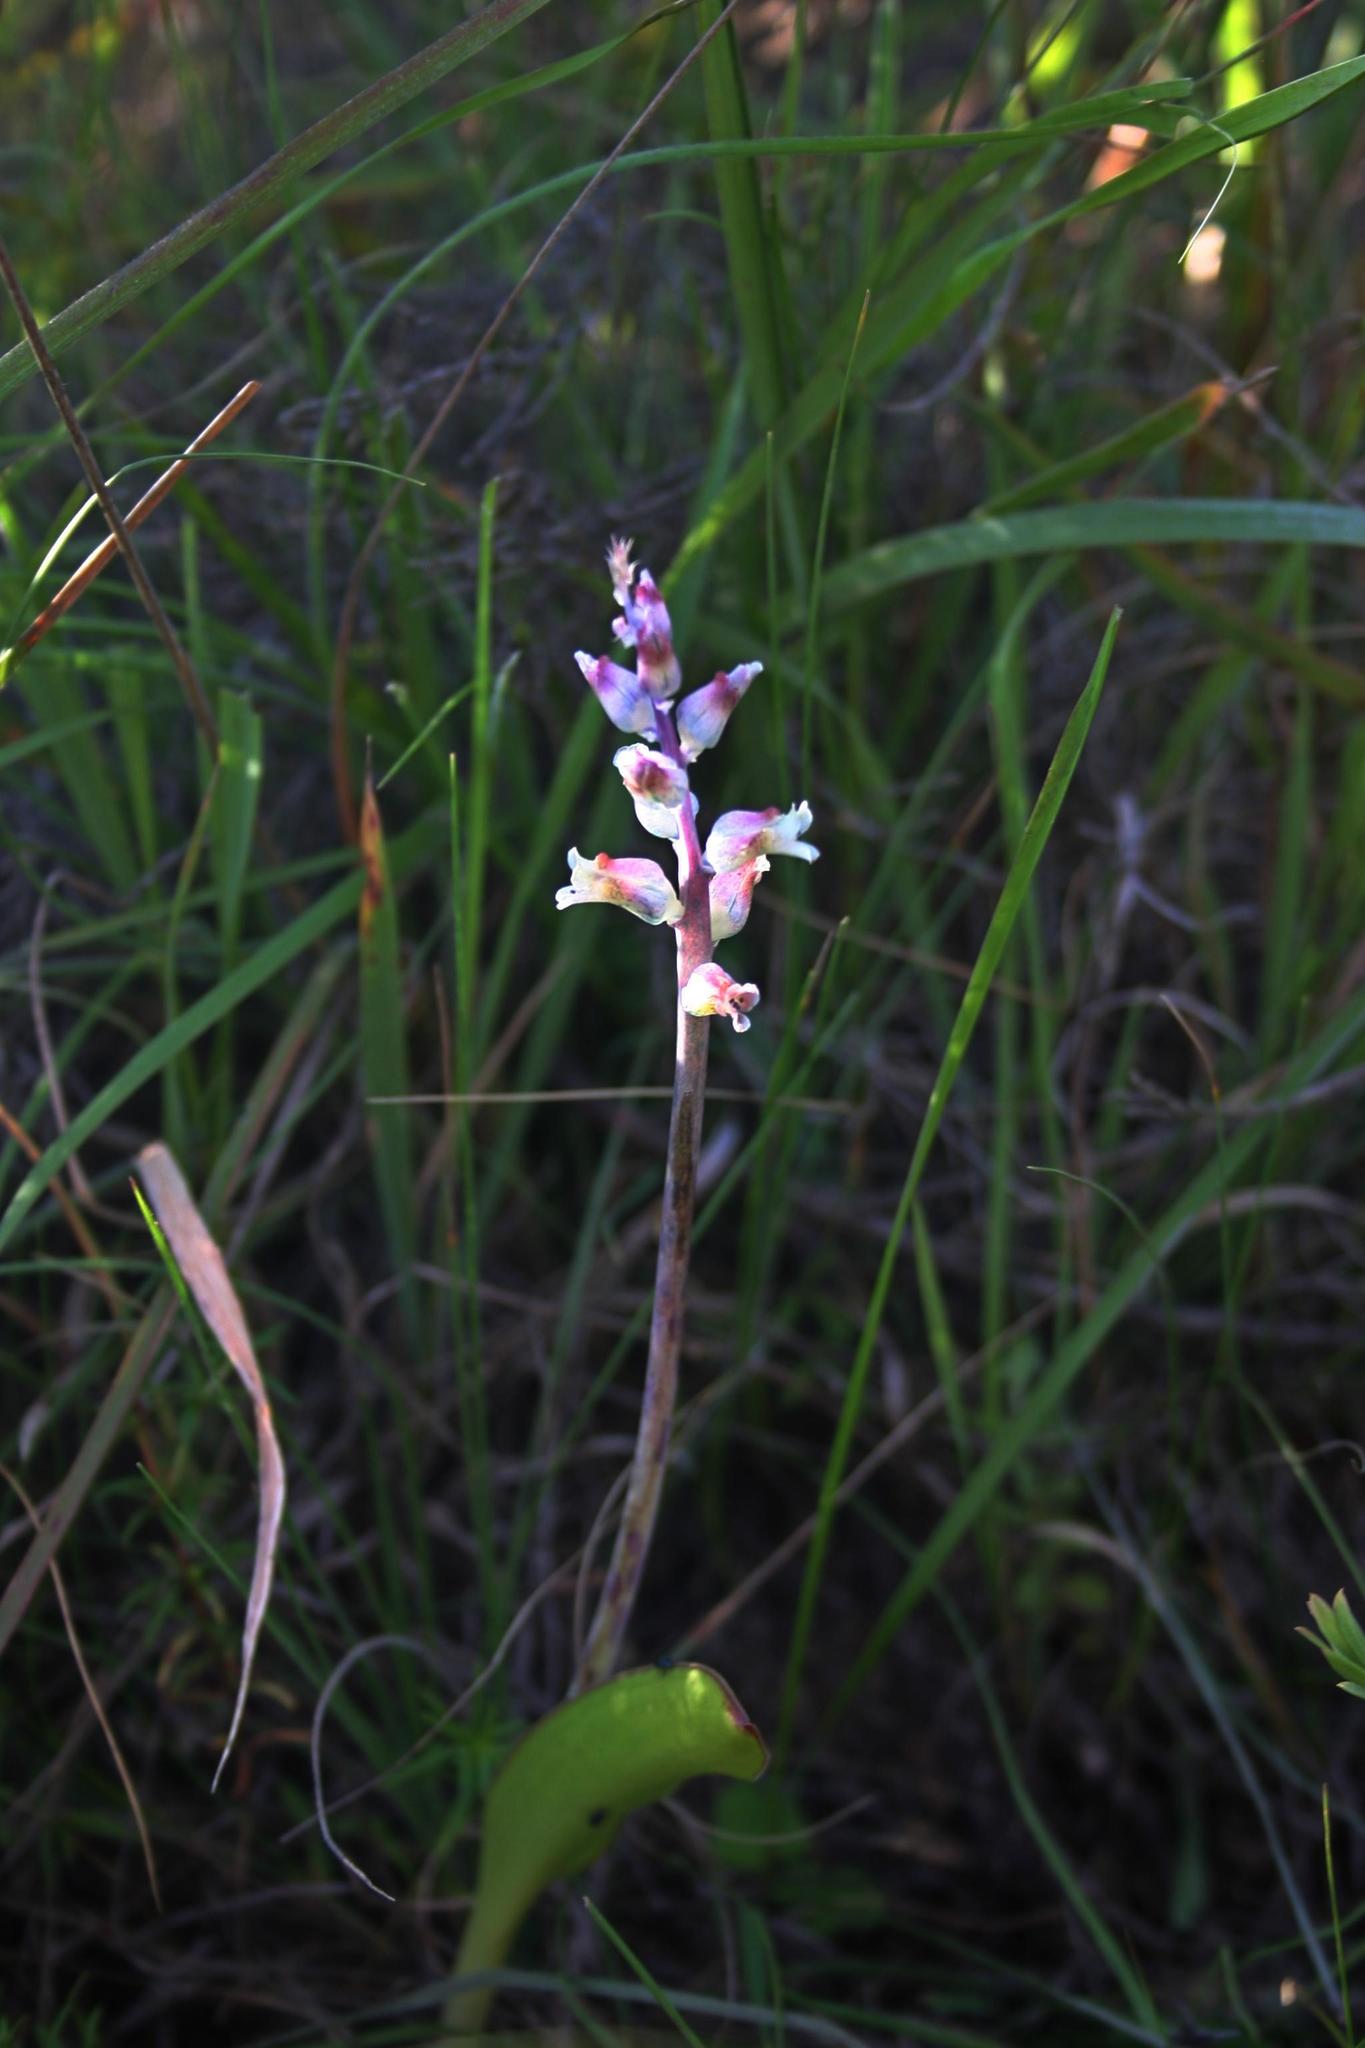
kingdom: Plantae
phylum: Tracheophyta
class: Liliopsida
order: Asparagales
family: Asparagaceae
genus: Lachenalia
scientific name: Lachenalia judithiae
